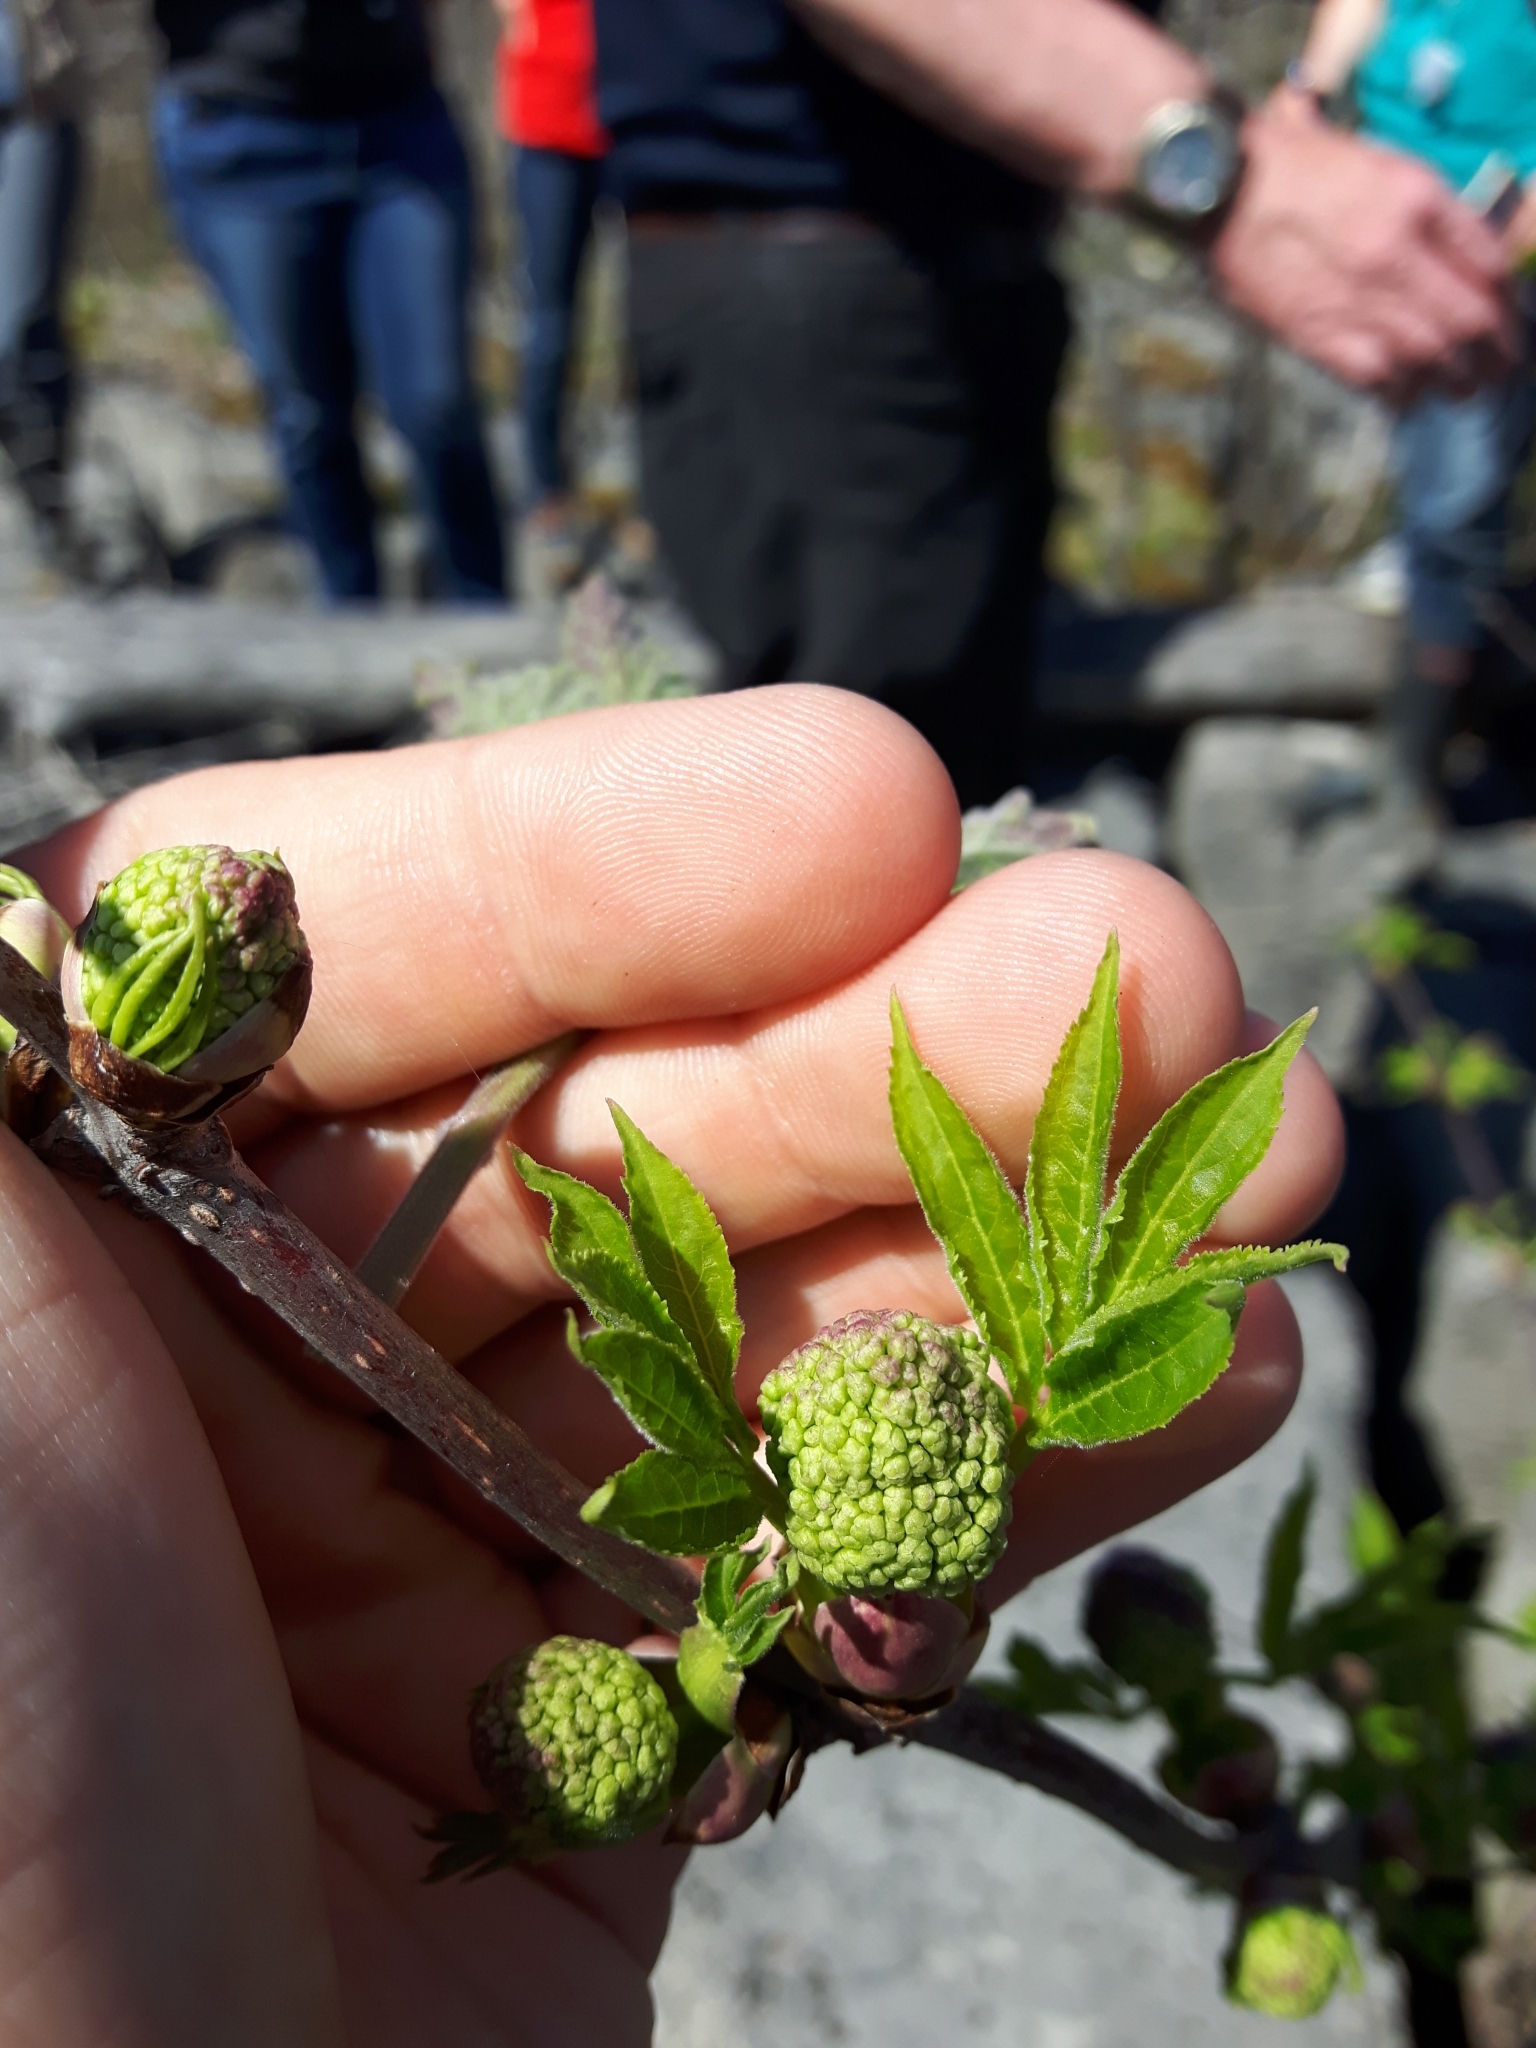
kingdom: Plantae
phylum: Tracheophyta
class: Magnoliopsida
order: Dipsacales
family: Viburnaceae
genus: Sambucus
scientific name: Sambucus racemosa
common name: Red-berried elder
